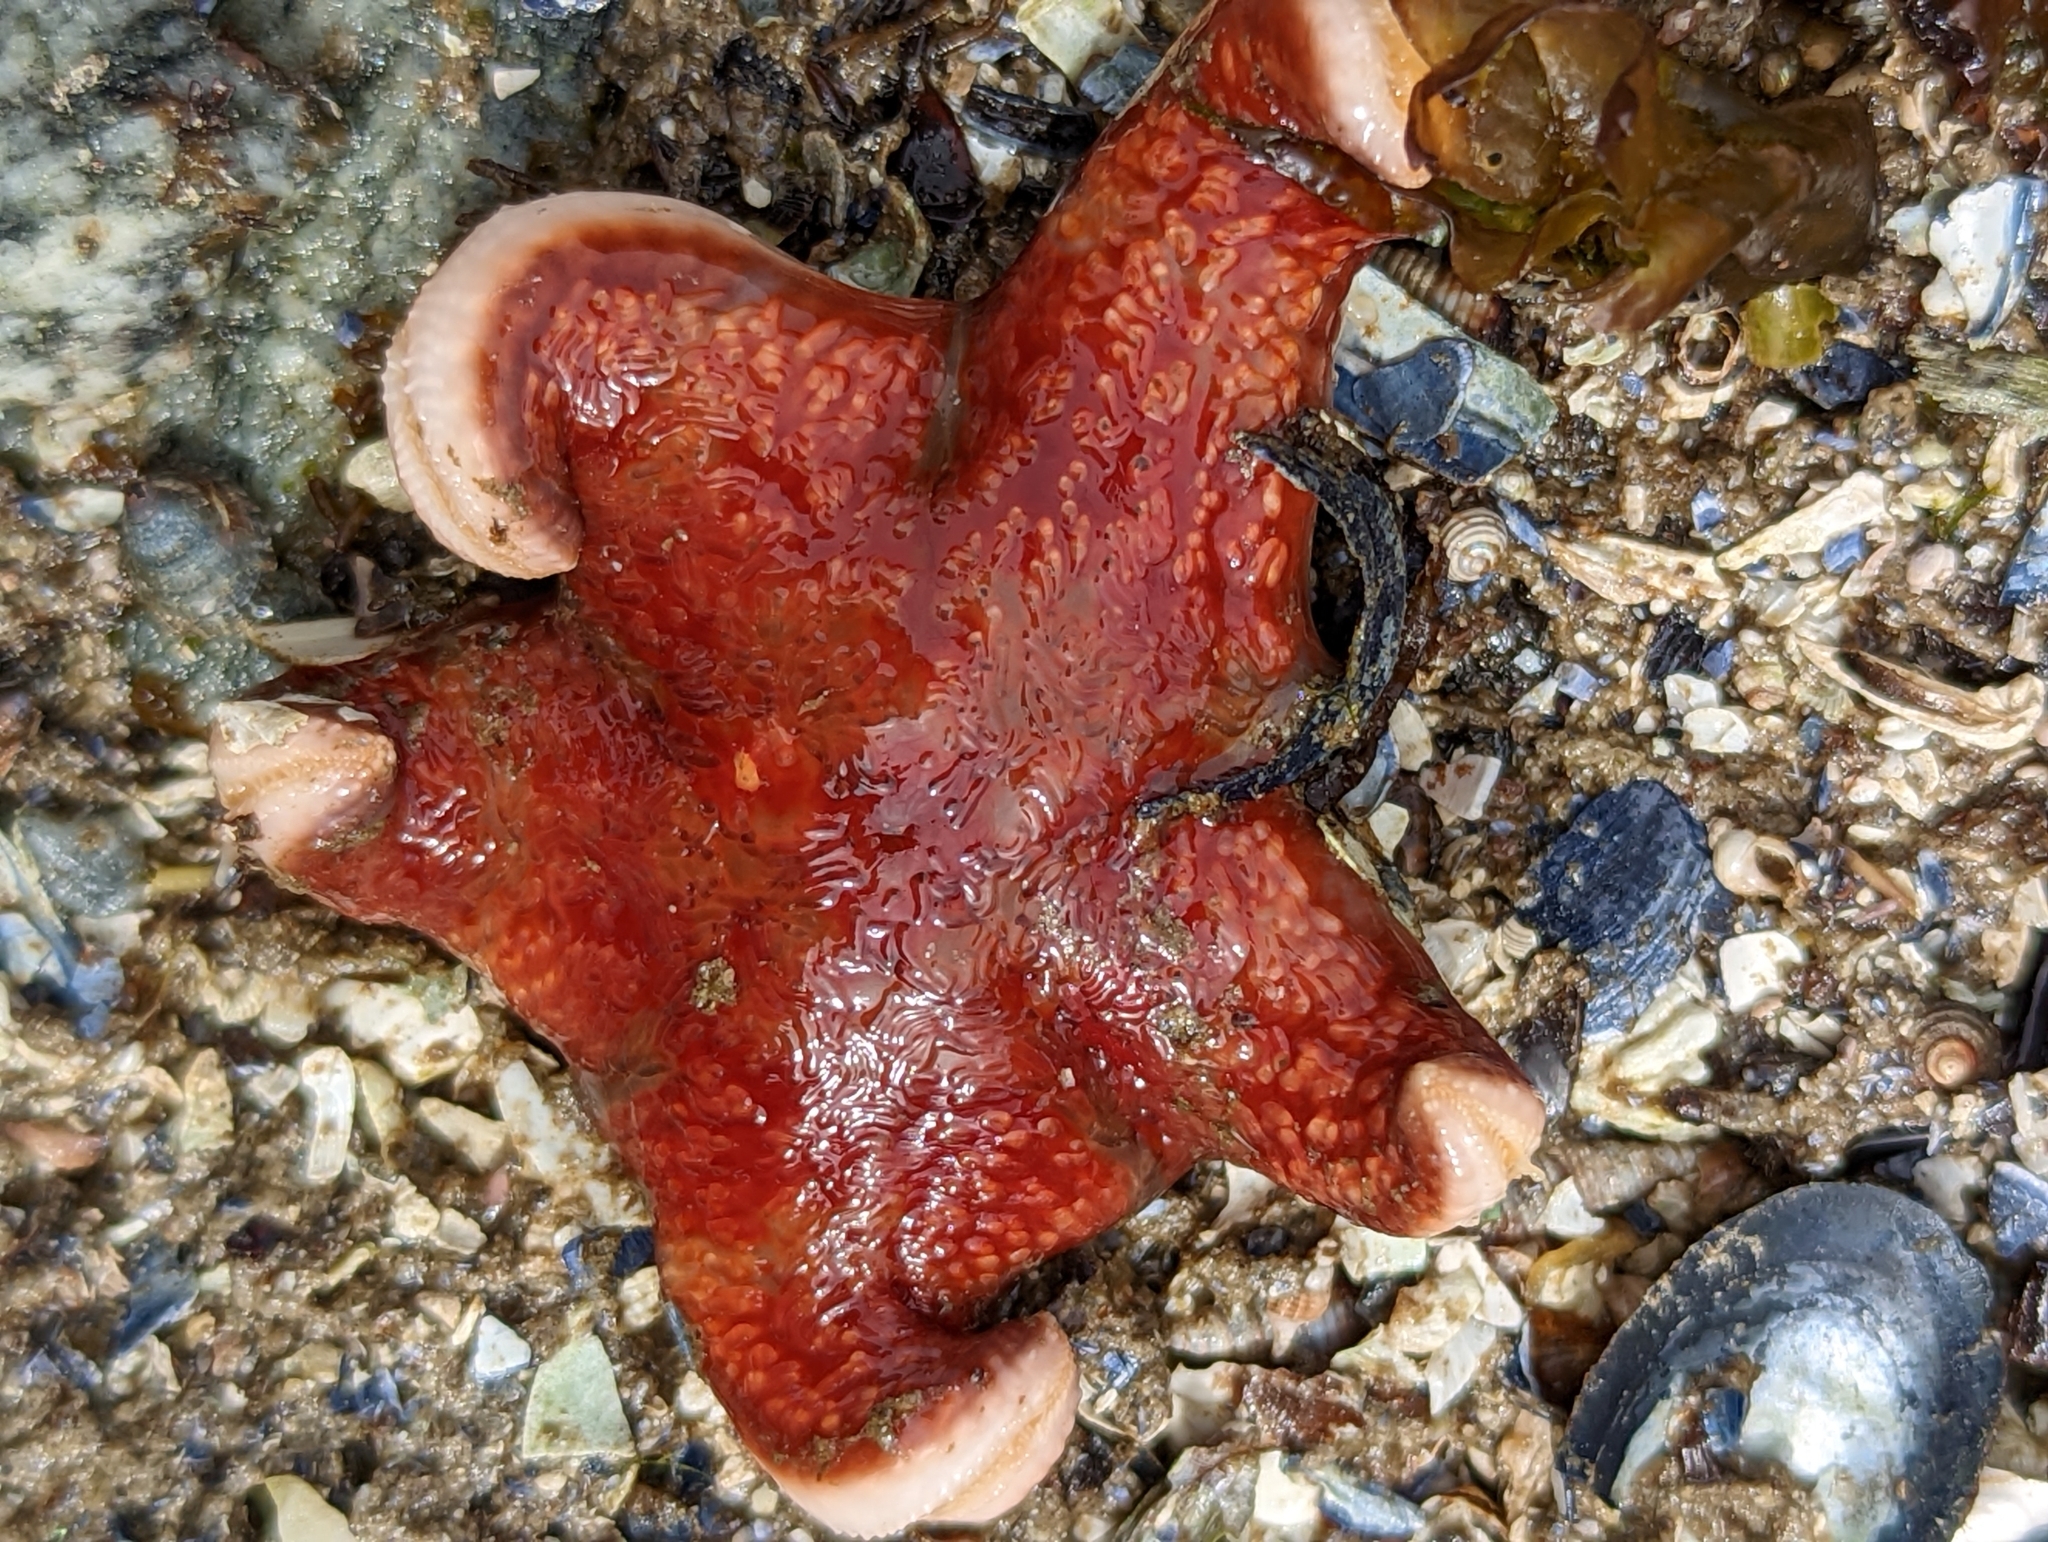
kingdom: Animalia
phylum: Echinodermata
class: Asteroidea
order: Valvatida
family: Asteropseidae
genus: Dermasterias
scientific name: Dermasterias imbricata
